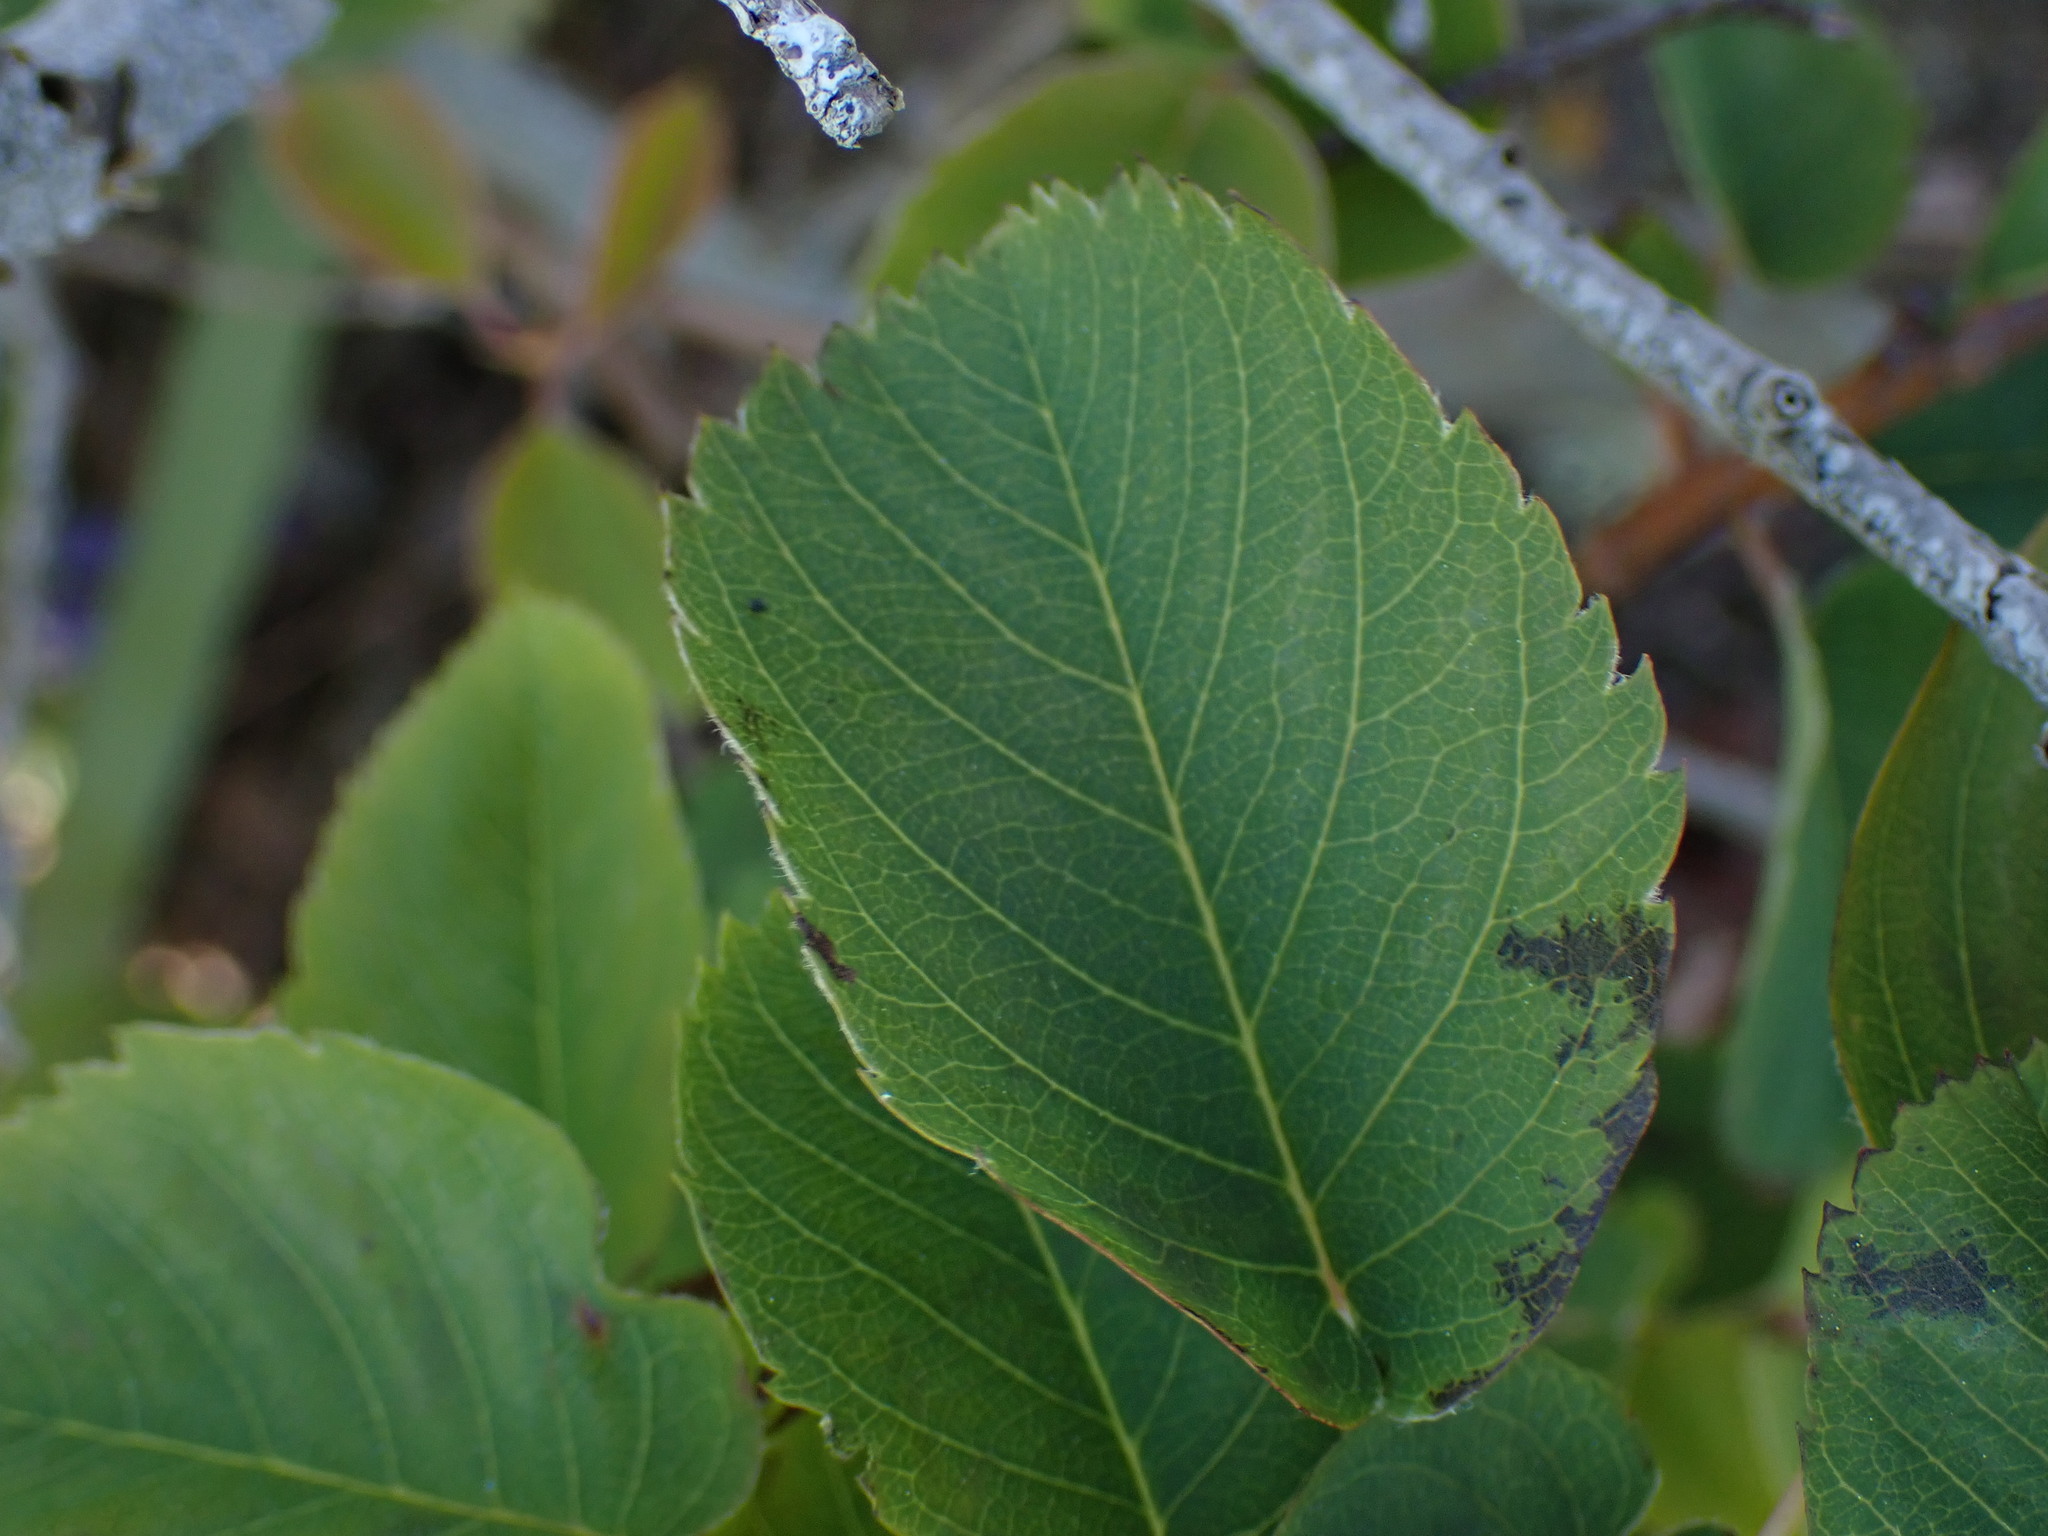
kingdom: Plantae
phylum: Tracheophyta
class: Magnoliopsida
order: Rosales
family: Rosaceae
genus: Amelanchier
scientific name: Amelanchier alnifolia
